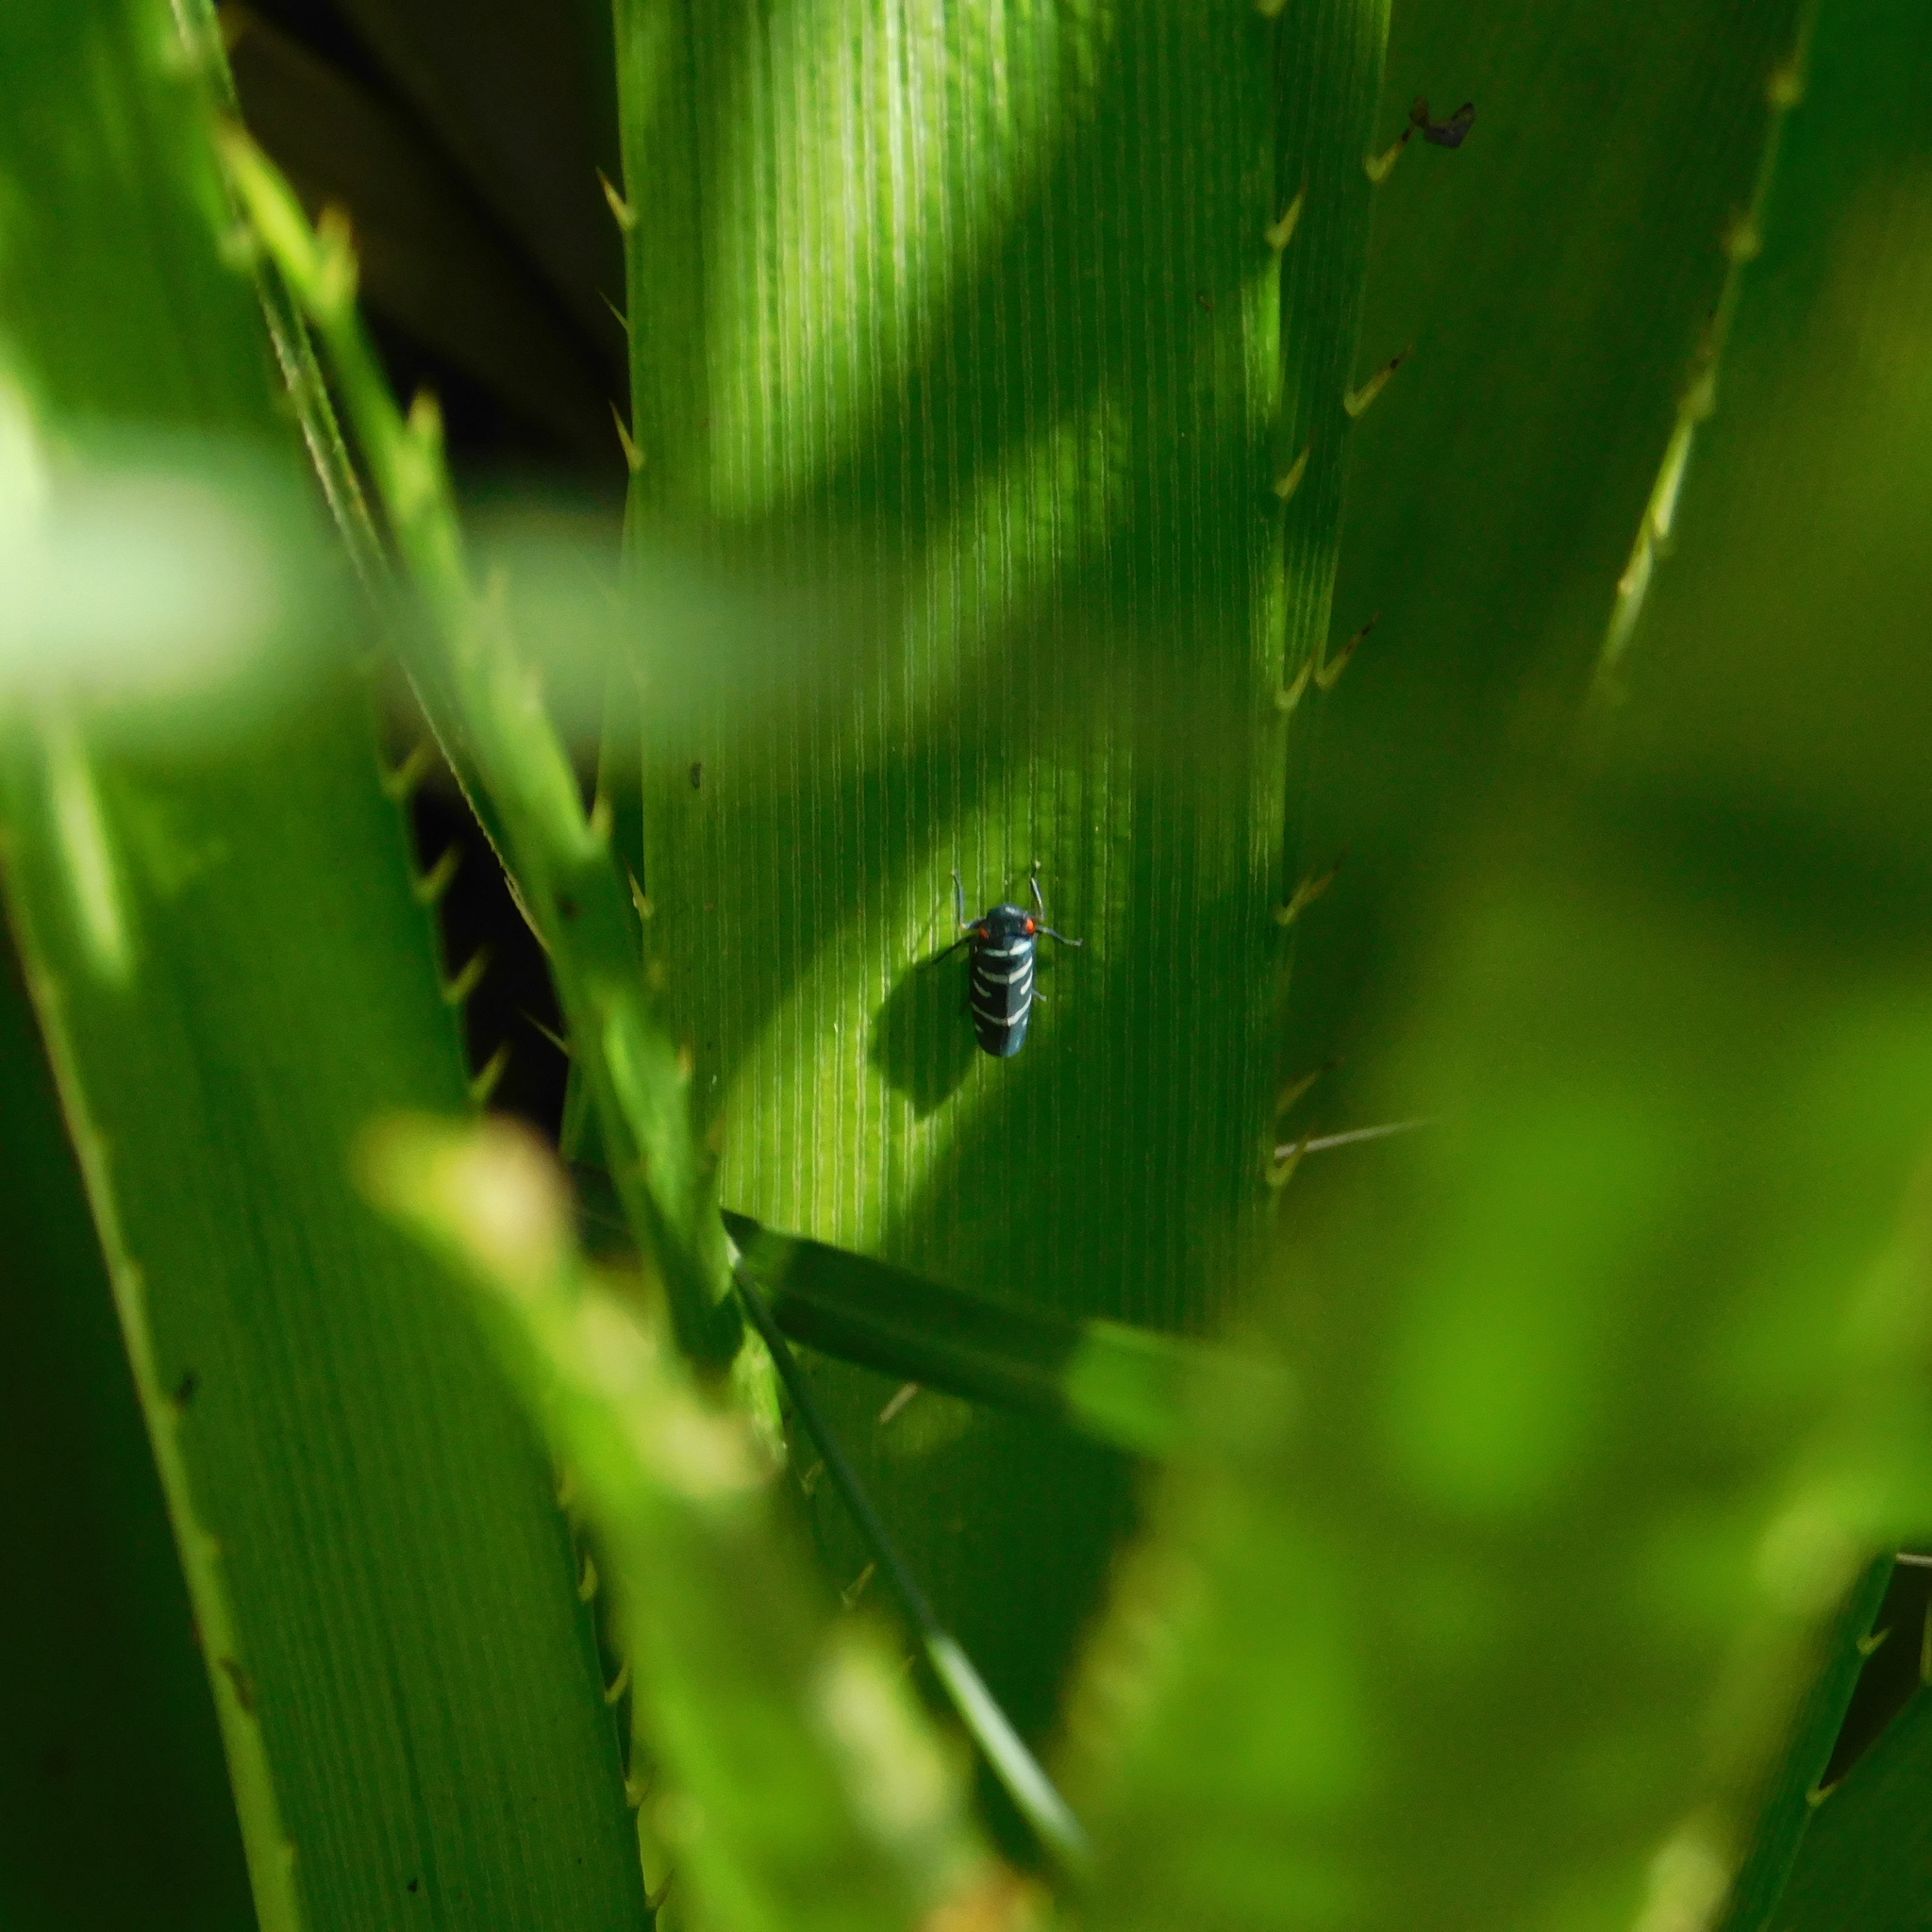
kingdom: Animalia
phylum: Arthropoda
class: Insecta
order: Hemiptera
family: Cicadellidae
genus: Balacha
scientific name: Balacha melanocephala
